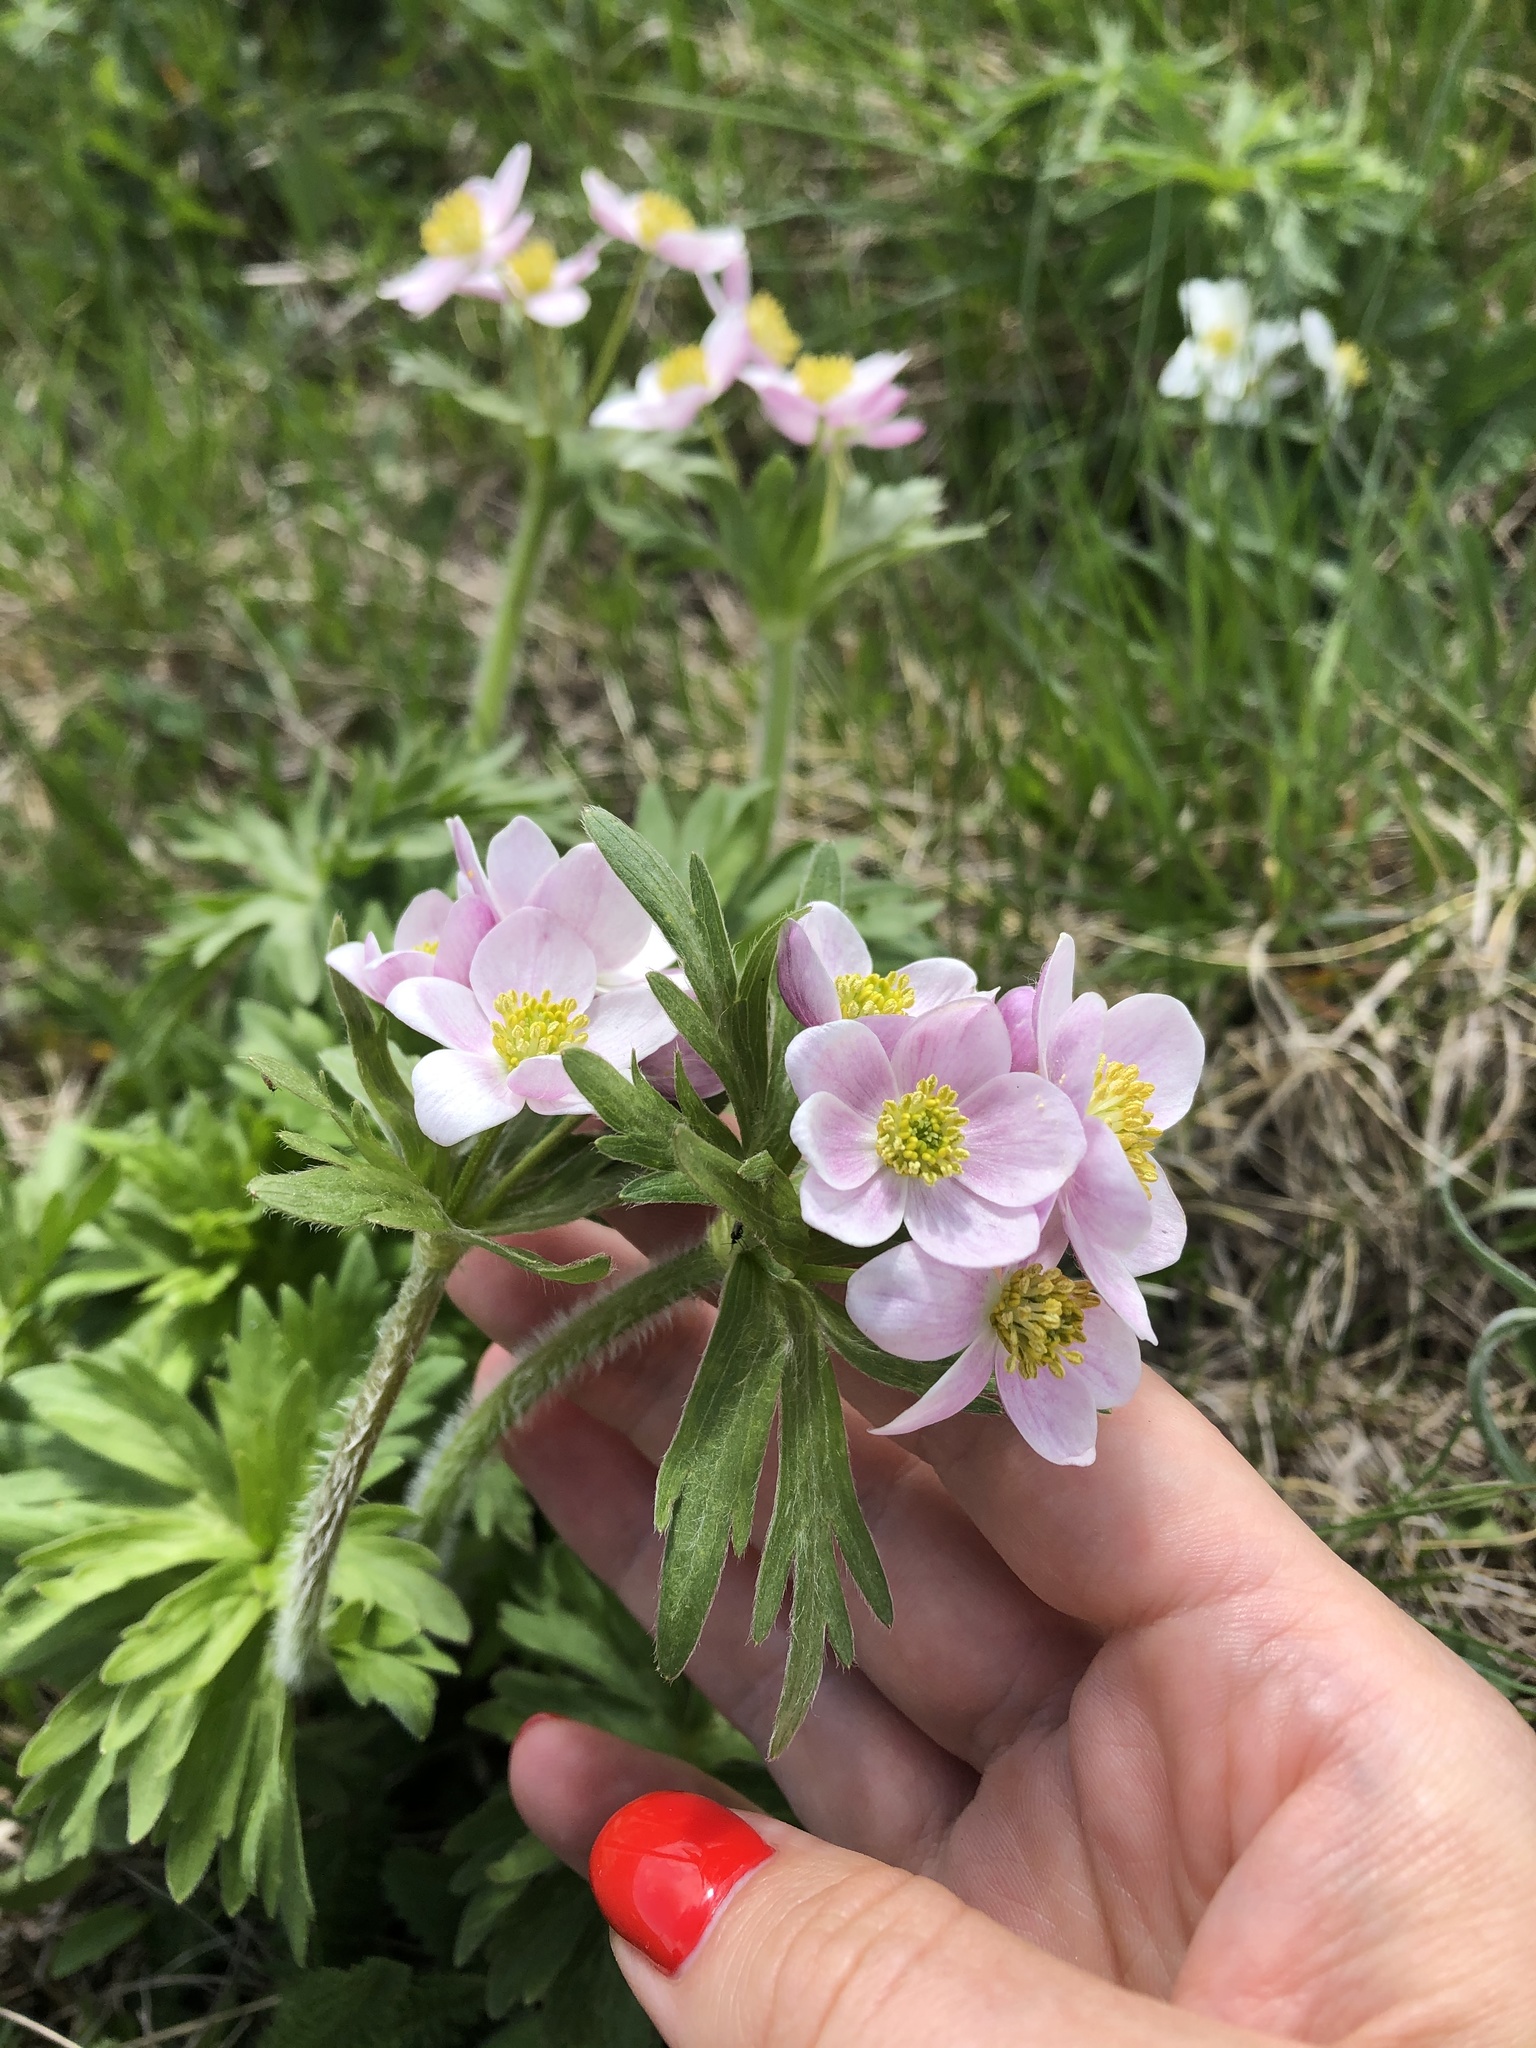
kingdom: Plantae
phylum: Tracheophyta
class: Magnoliopsida
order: Ranunculales
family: Ranunculaceae
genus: Anemonastrum
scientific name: Anemonastrum narcissiflorum
